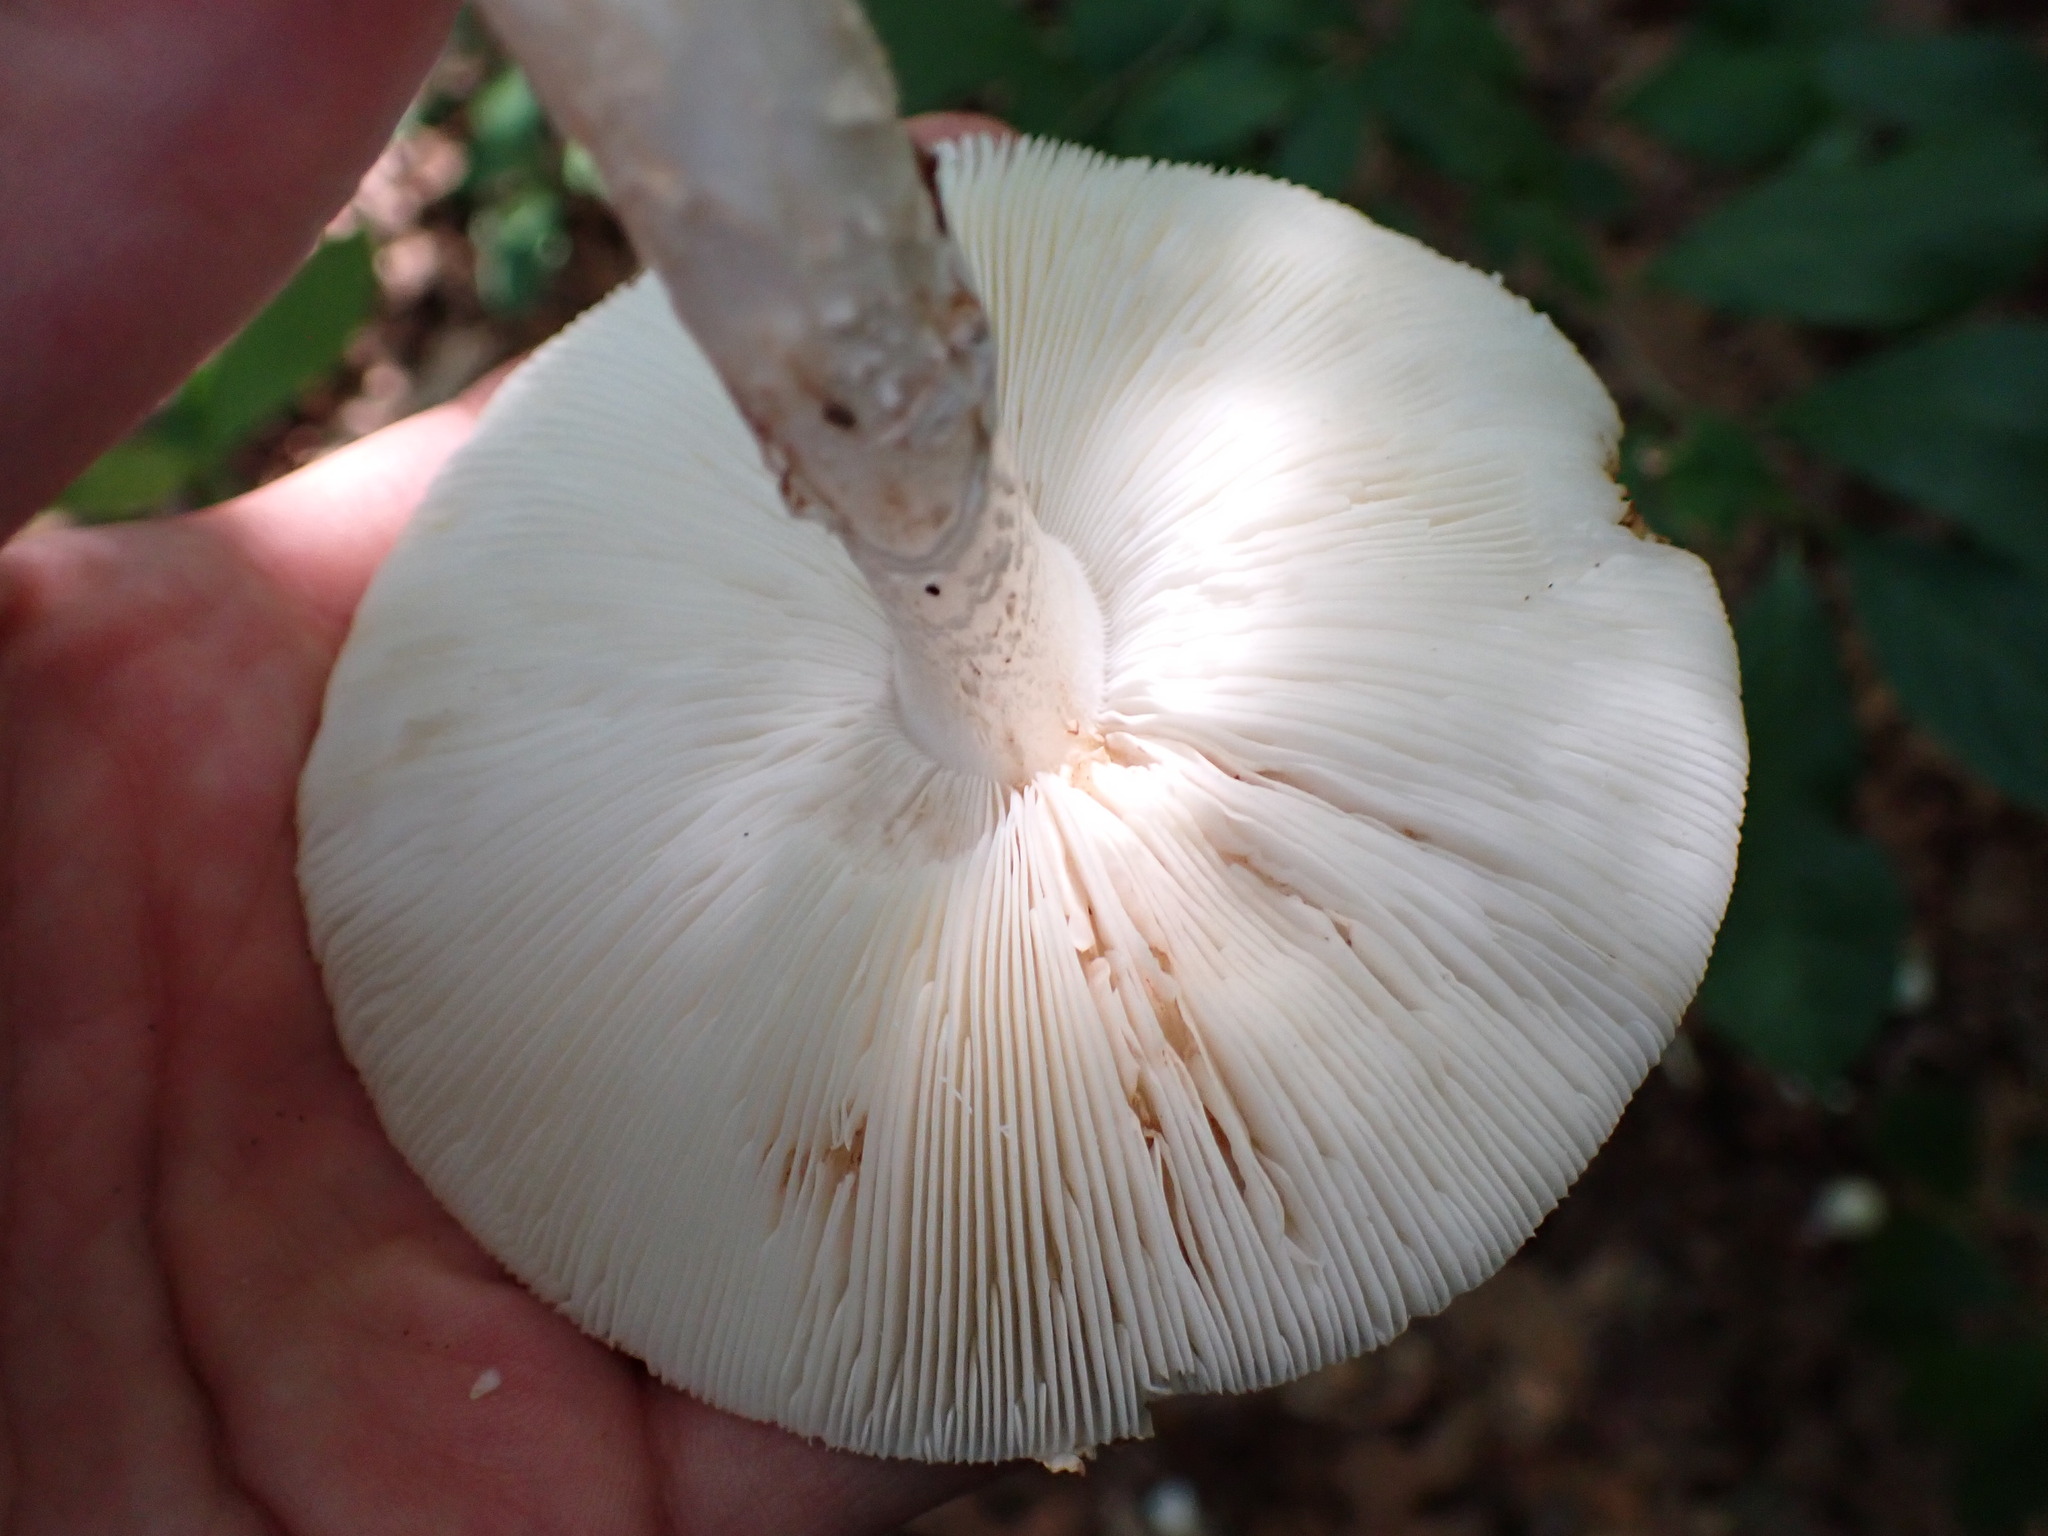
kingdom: Fungi
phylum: Basidiomycota
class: Agaricomycetes
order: Agaricales
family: Amanitaceae
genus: Amanita
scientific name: Amanita aestivalis
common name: White american star-footed amanita
